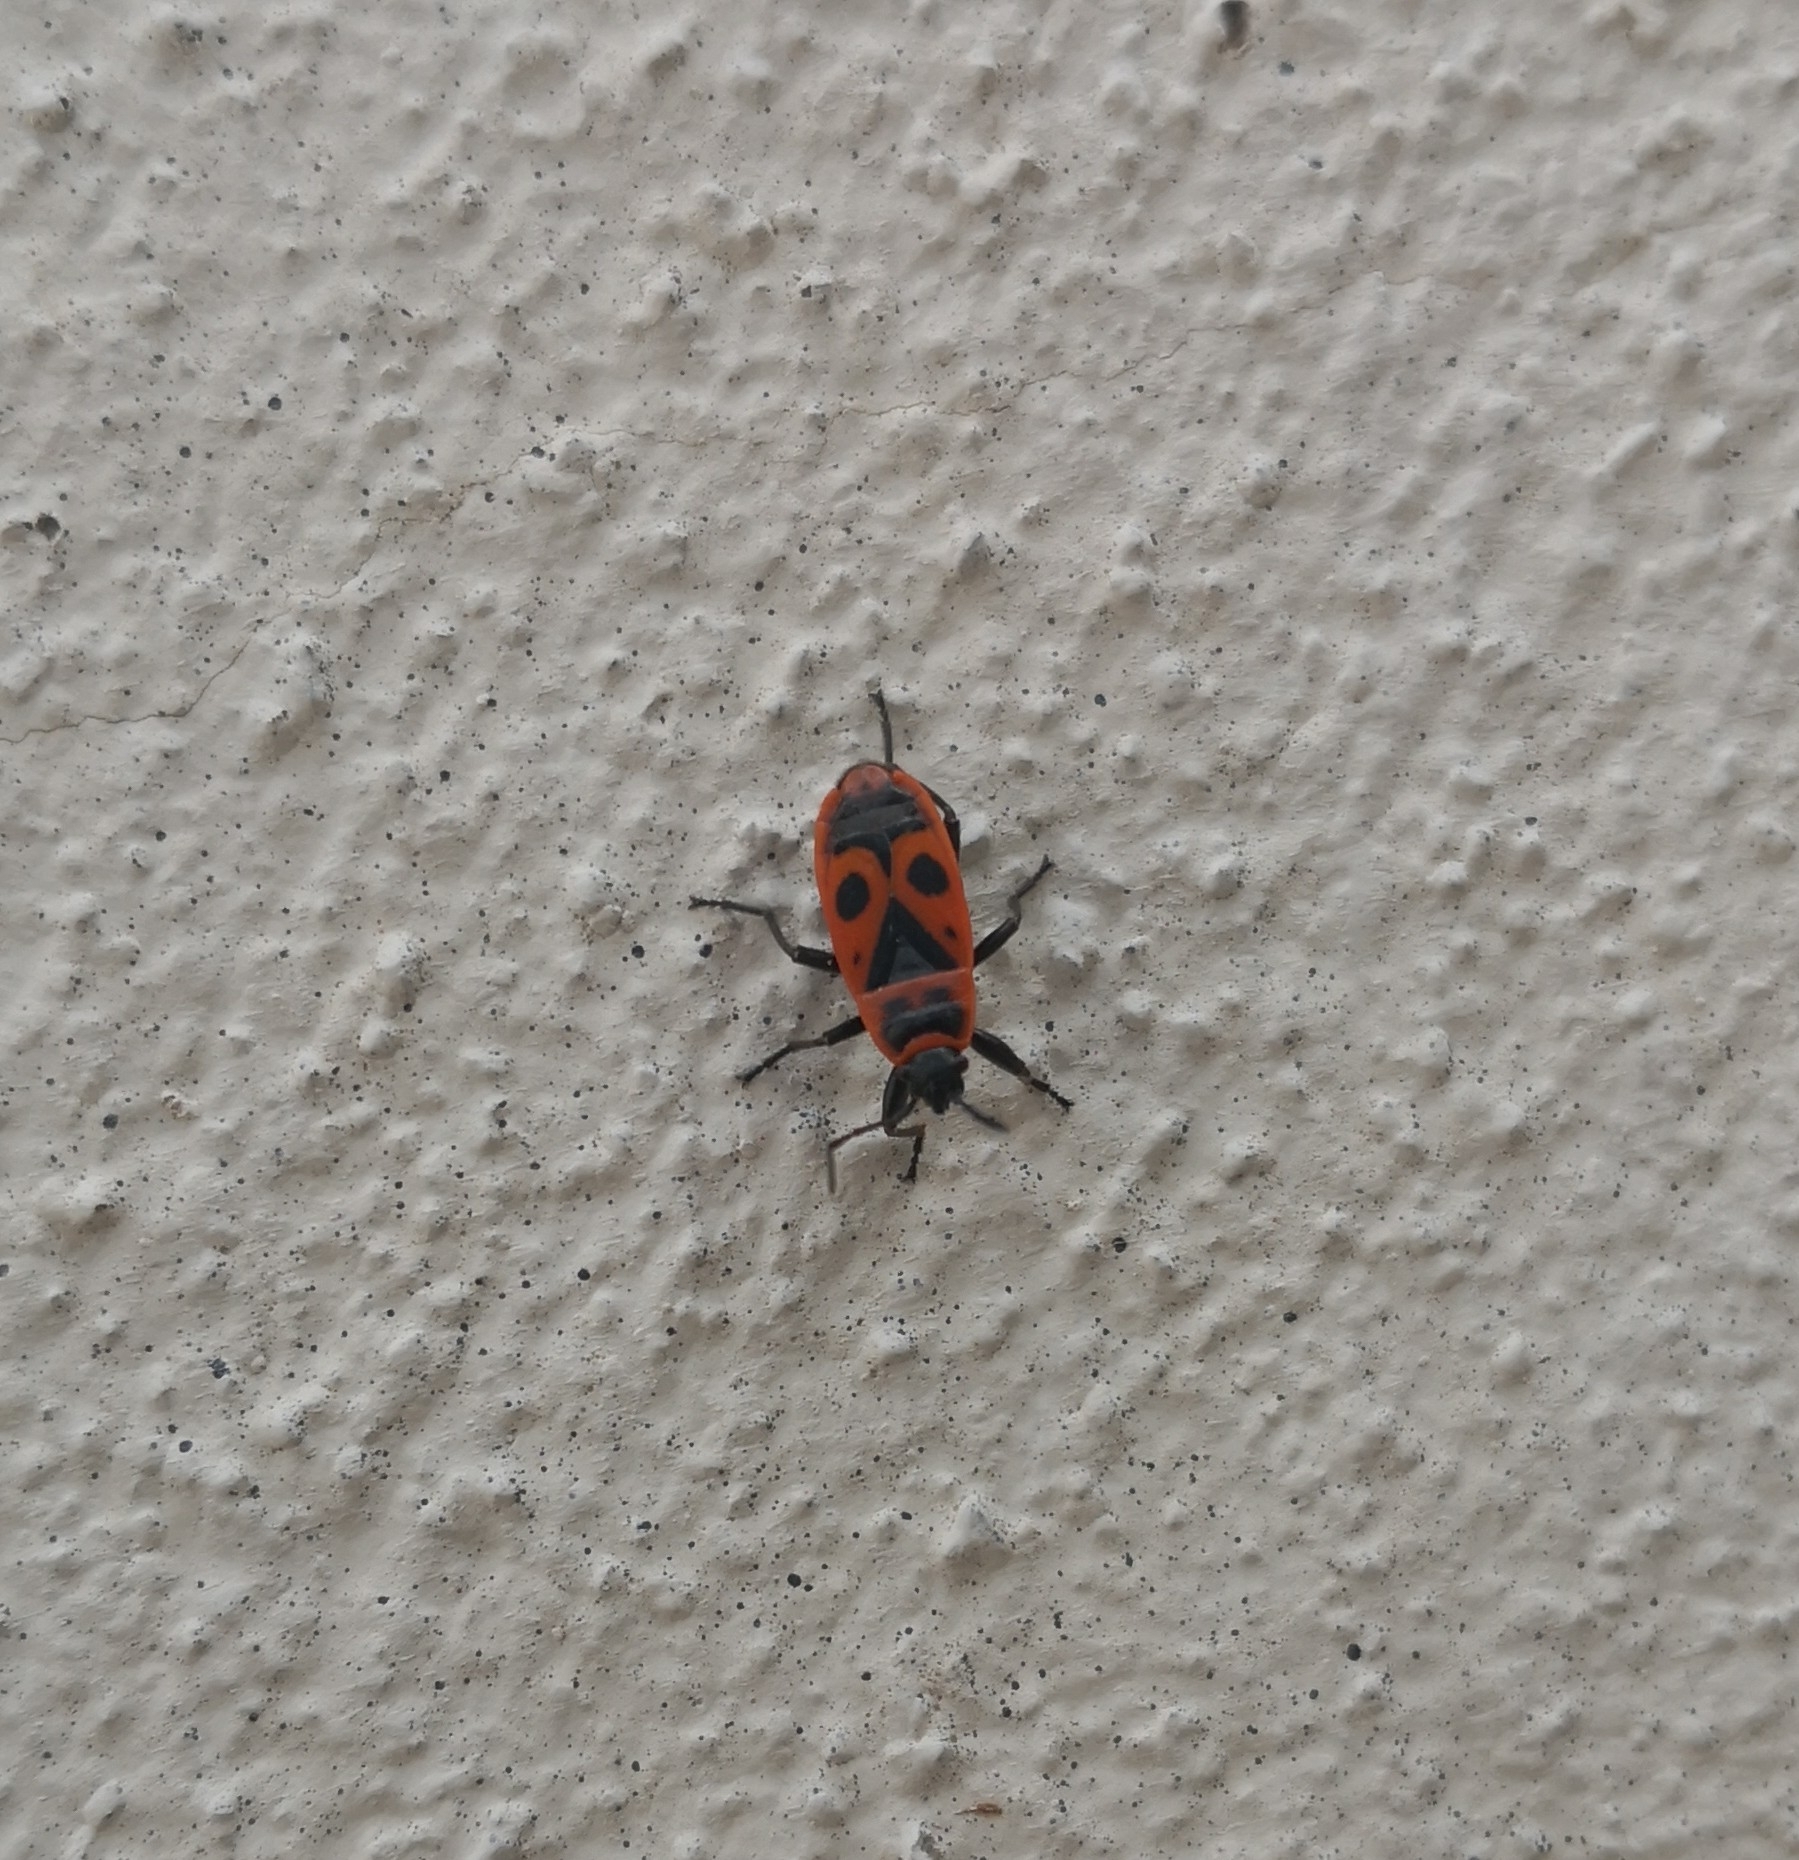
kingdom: Animalia
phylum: Arthropoda
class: Insecta
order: Hemiptera
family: Pyrrhocoridae
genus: Pyrrhocoris
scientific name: Pyrrhocoris apterus
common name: Firebug
